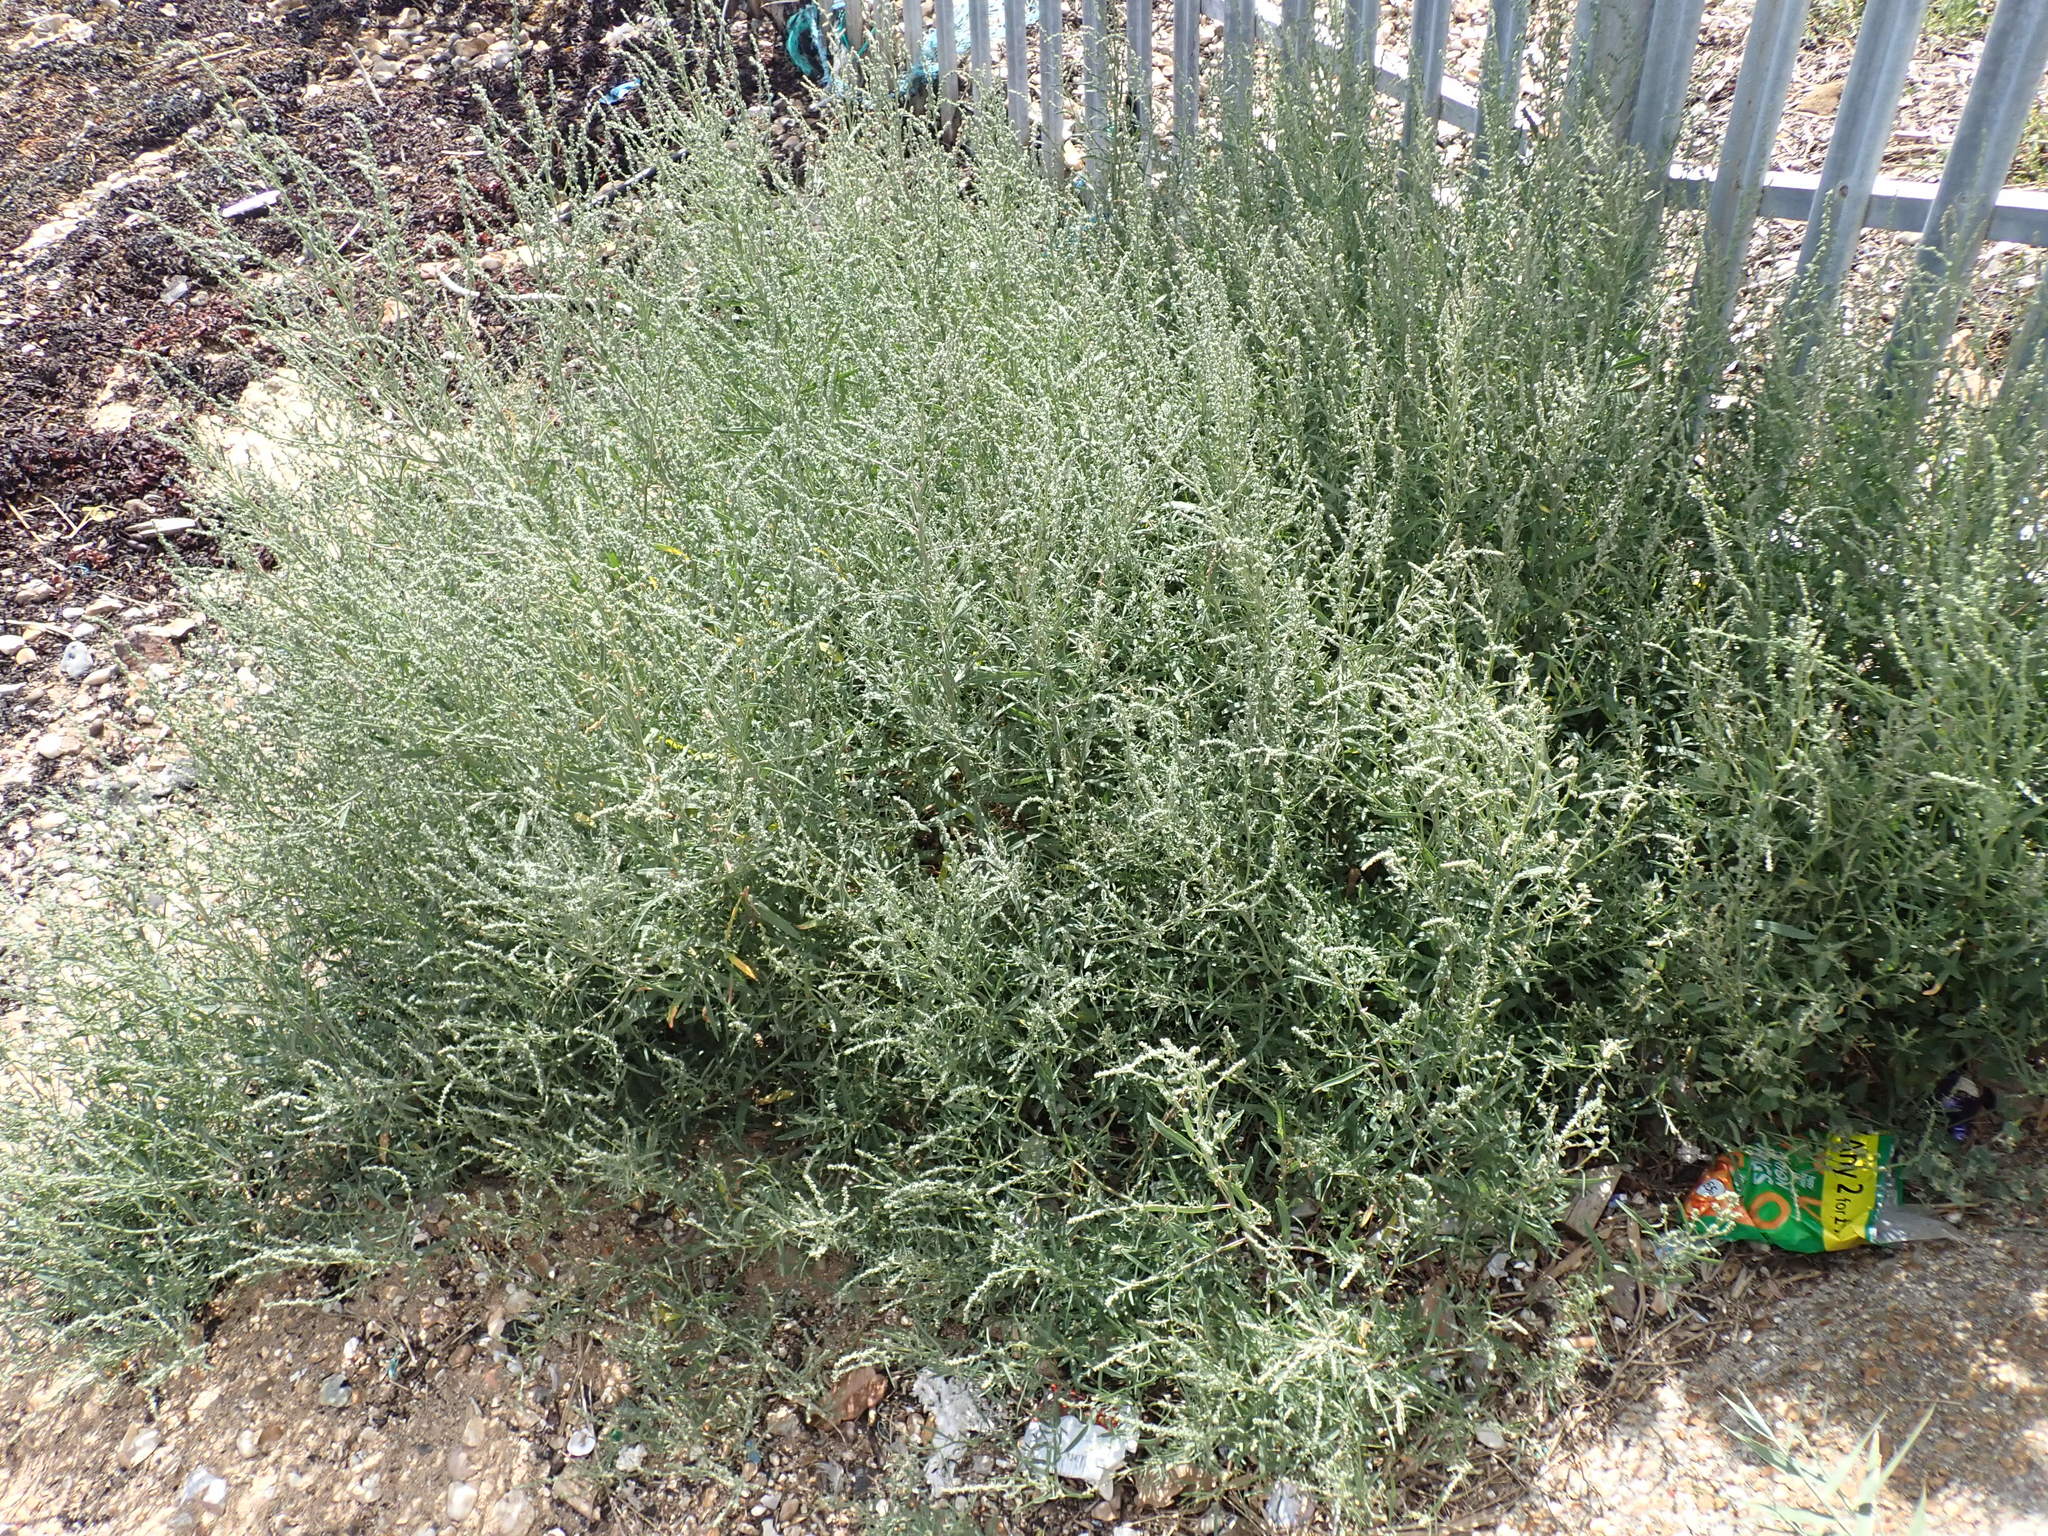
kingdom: Plantae
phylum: Tracheophyta
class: Magnoliopsida
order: Caryophyllales
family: Amaranthaceae
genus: Atriplex
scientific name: Atriplex littoralis
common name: Grass-leaved orache
